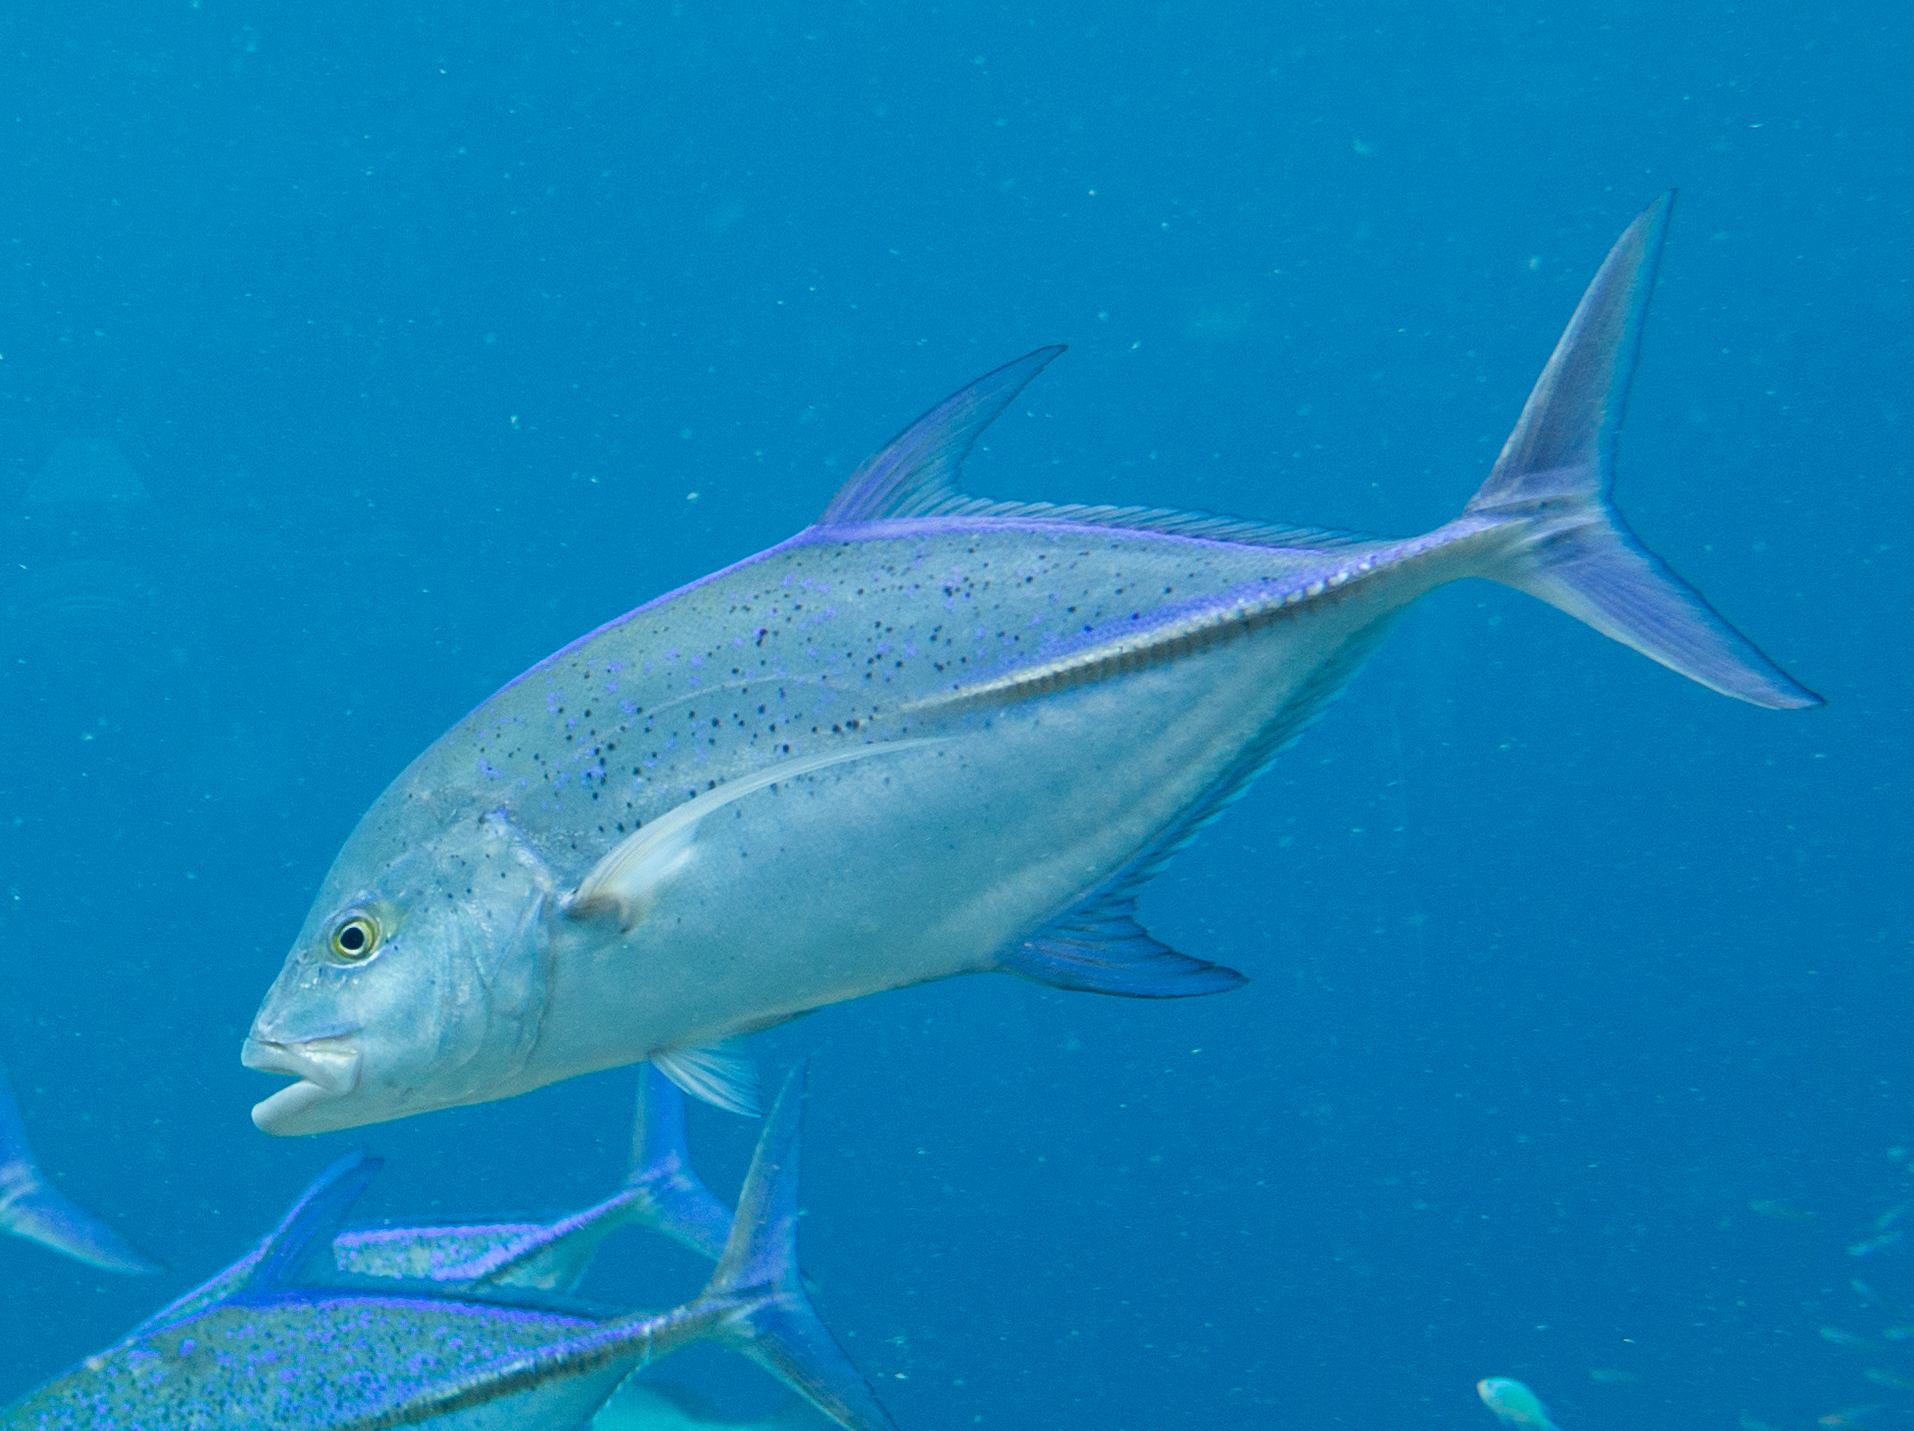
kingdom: Animalia
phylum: Chordata
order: Perciformes
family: Carangidae
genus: Caranx
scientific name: Caranx melampygus
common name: Bluefin trevally
